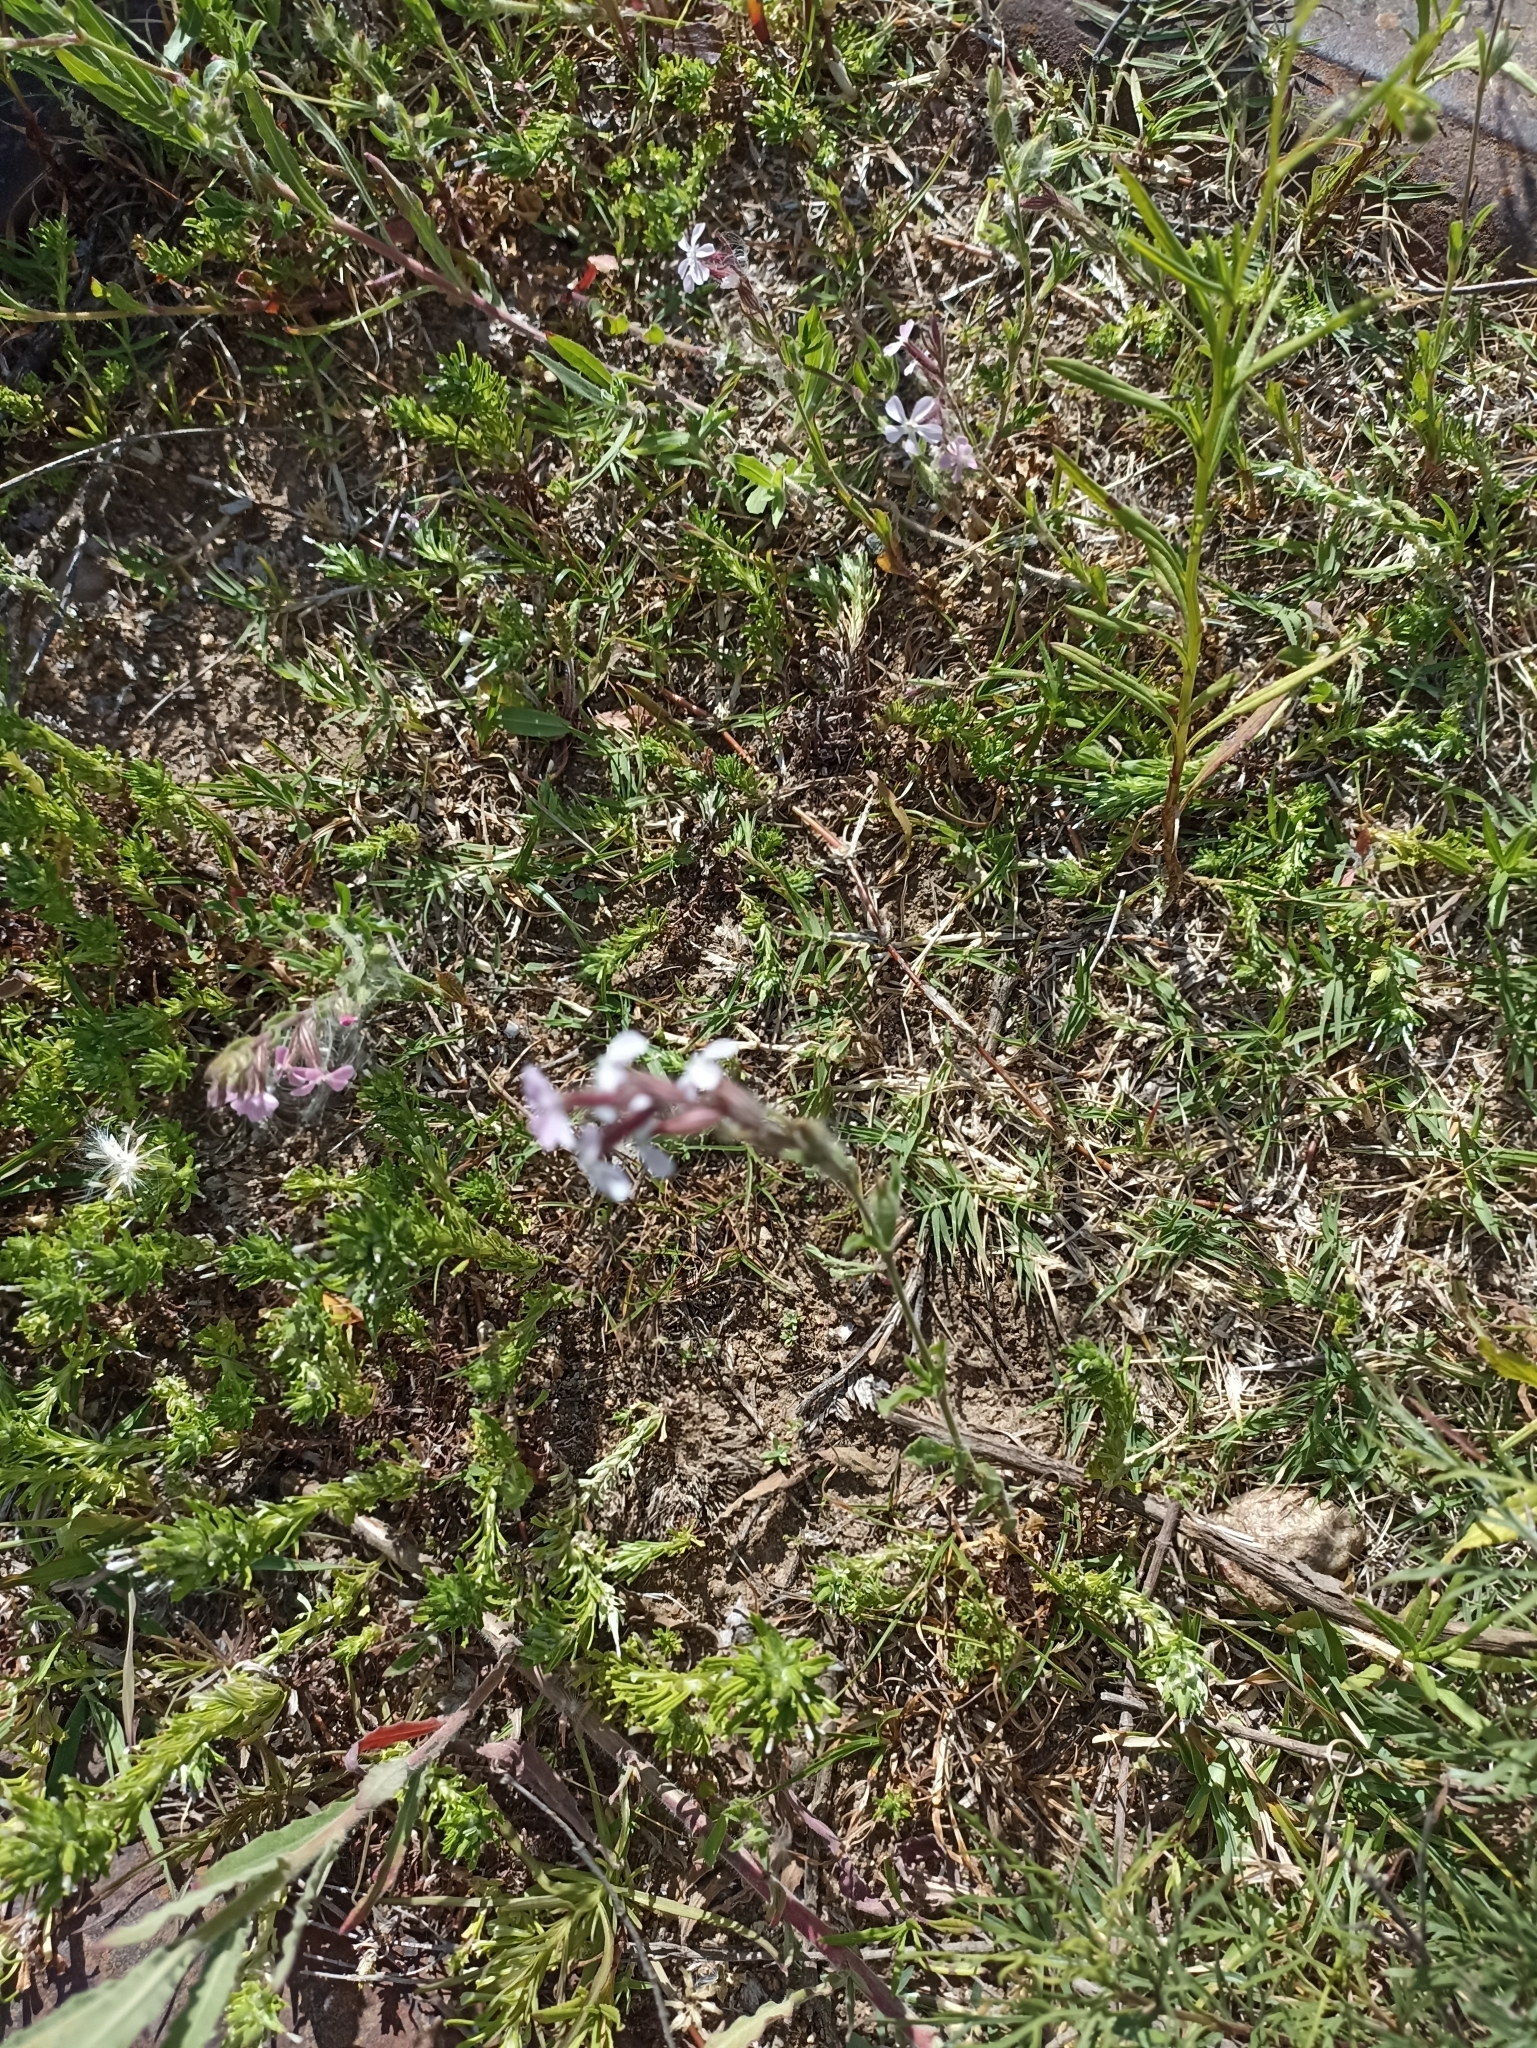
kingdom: Plantae
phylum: Tracheophyta
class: Magnoliopsida
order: Caryophyllales
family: Caryophyllaceae
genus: Silene
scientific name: Silene gallica
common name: Small-flowered catchfly
